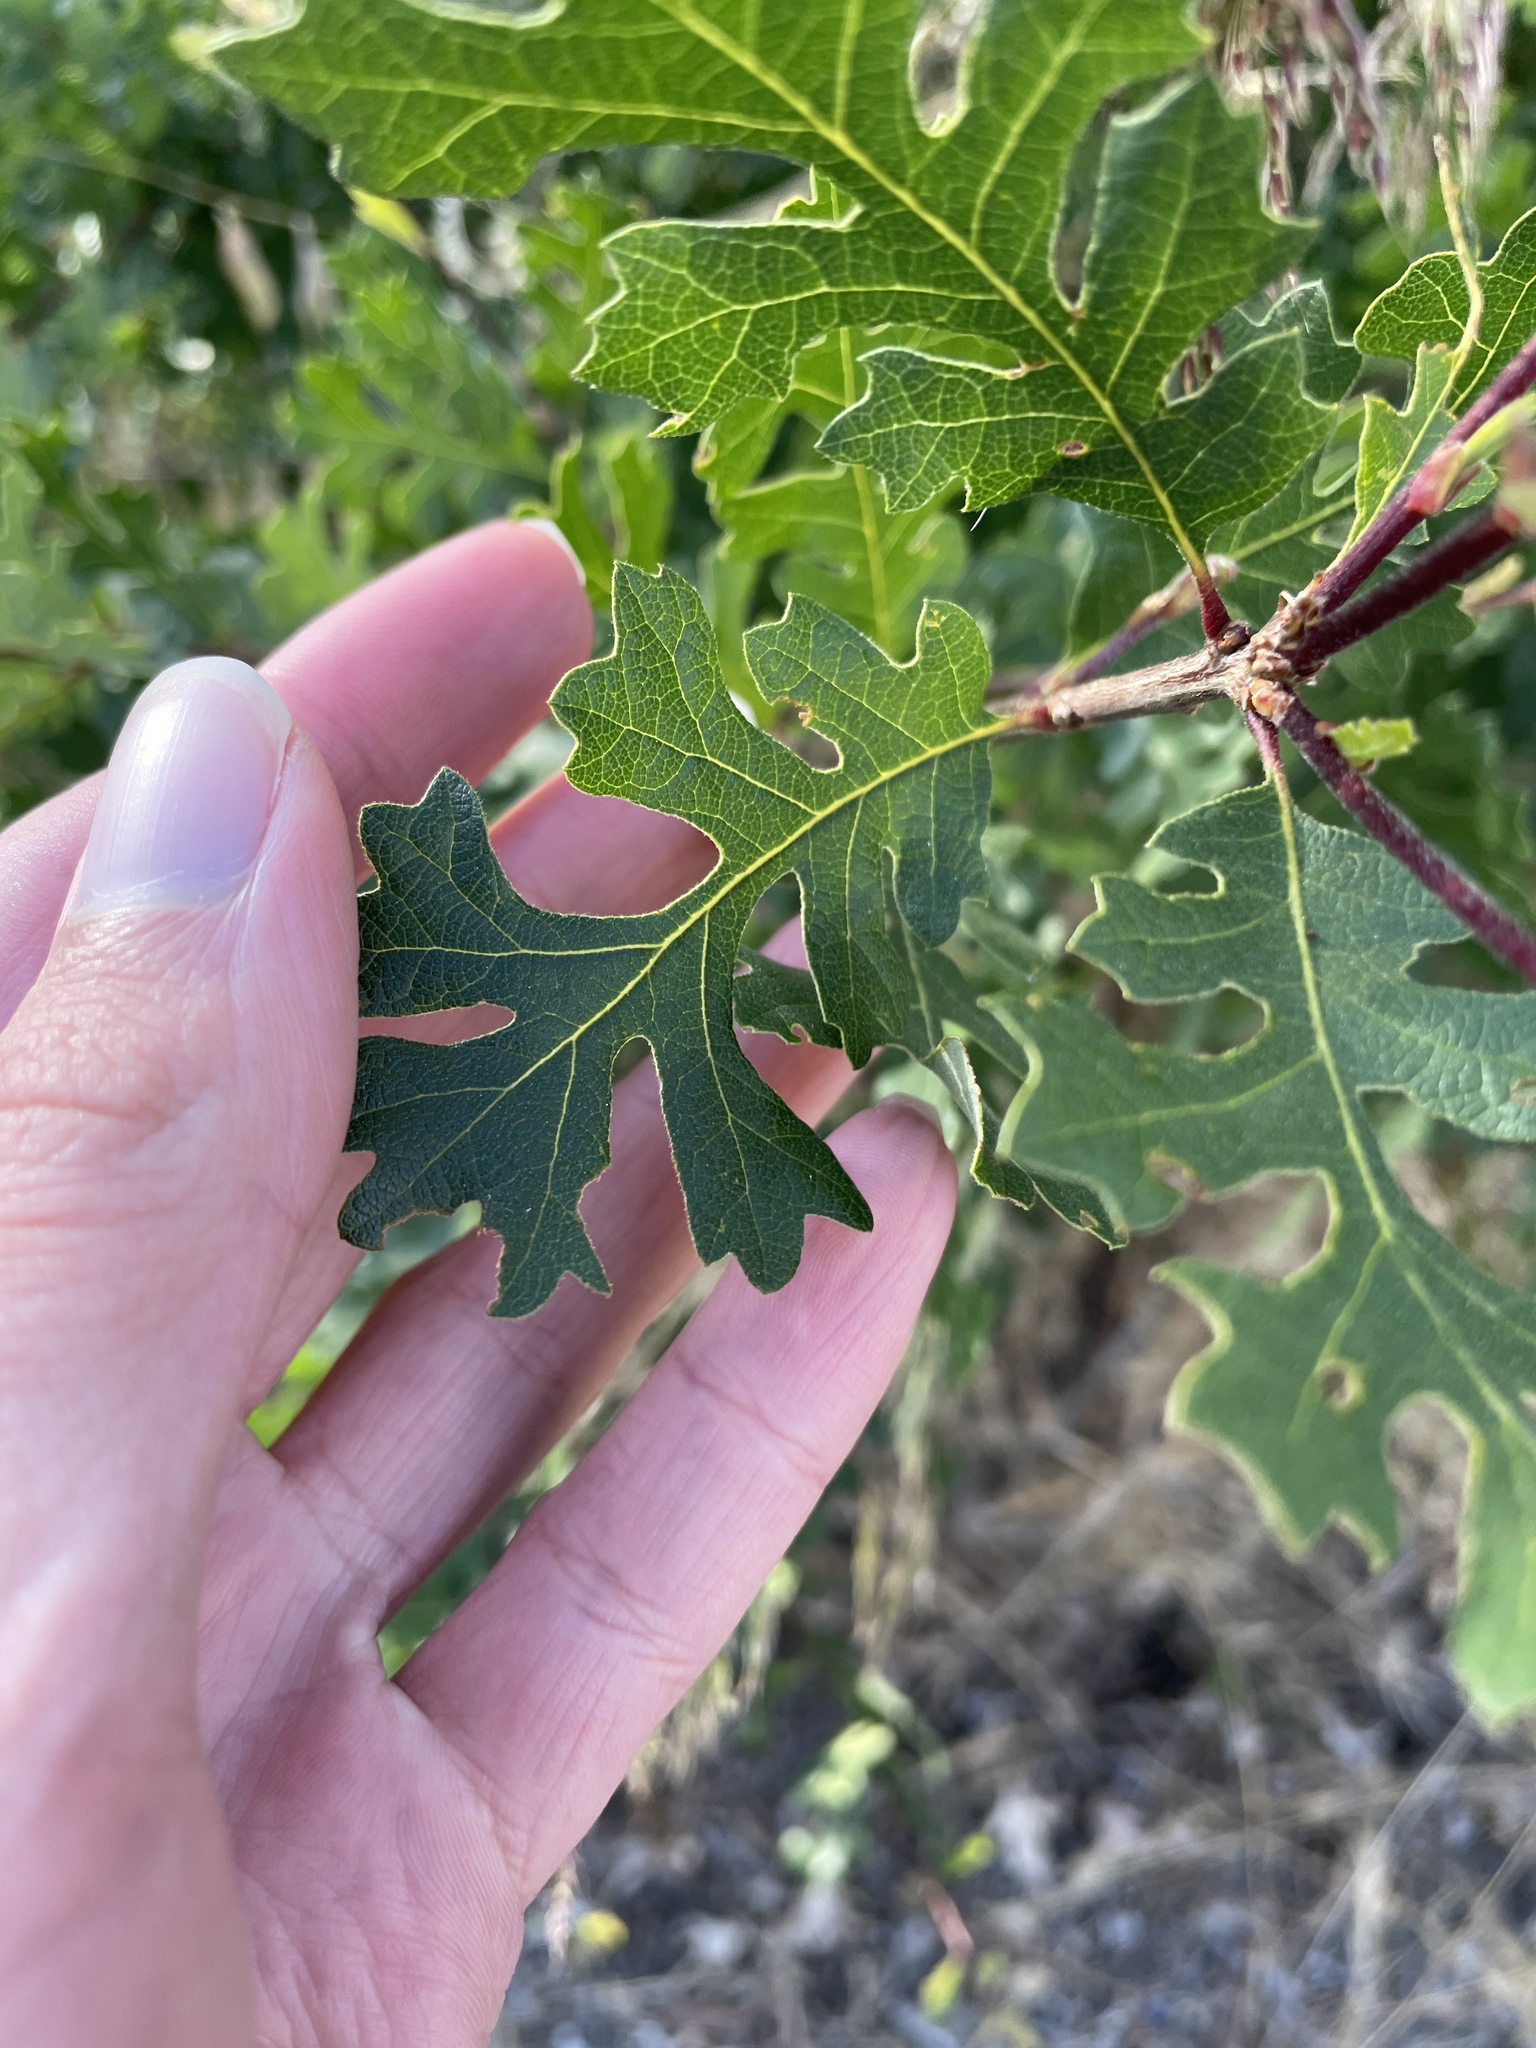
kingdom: Plantae
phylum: Tracheophyta
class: Magnoliopsida
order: Fagales
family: Fagaceae
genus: Quercus
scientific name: Quercus lobata
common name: Valley oak
